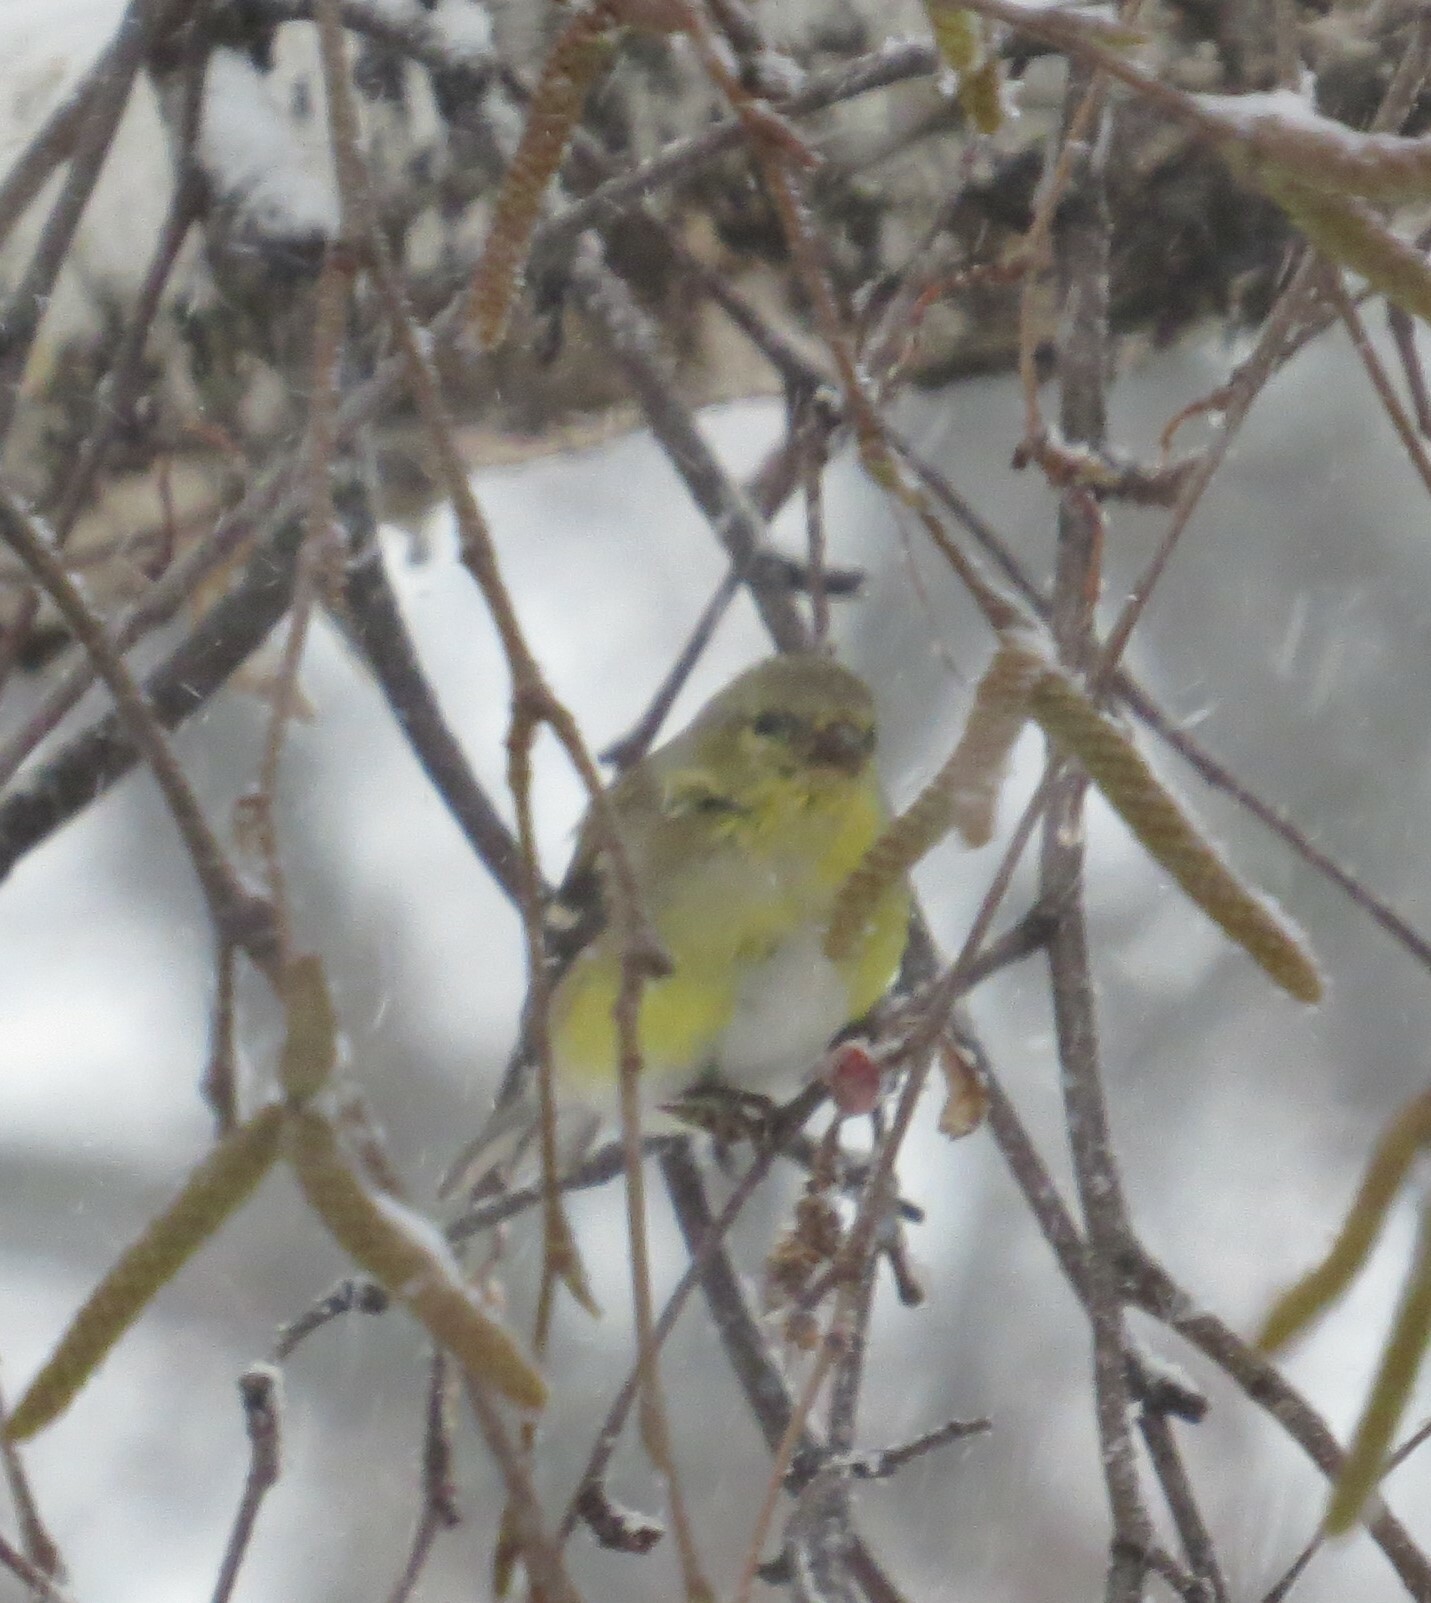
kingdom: Animalia
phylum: Chordata
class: Aves
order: Passeriformes
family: Fringillidae
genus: Spinus
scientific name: Spinus tristis
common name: American goldfinch
